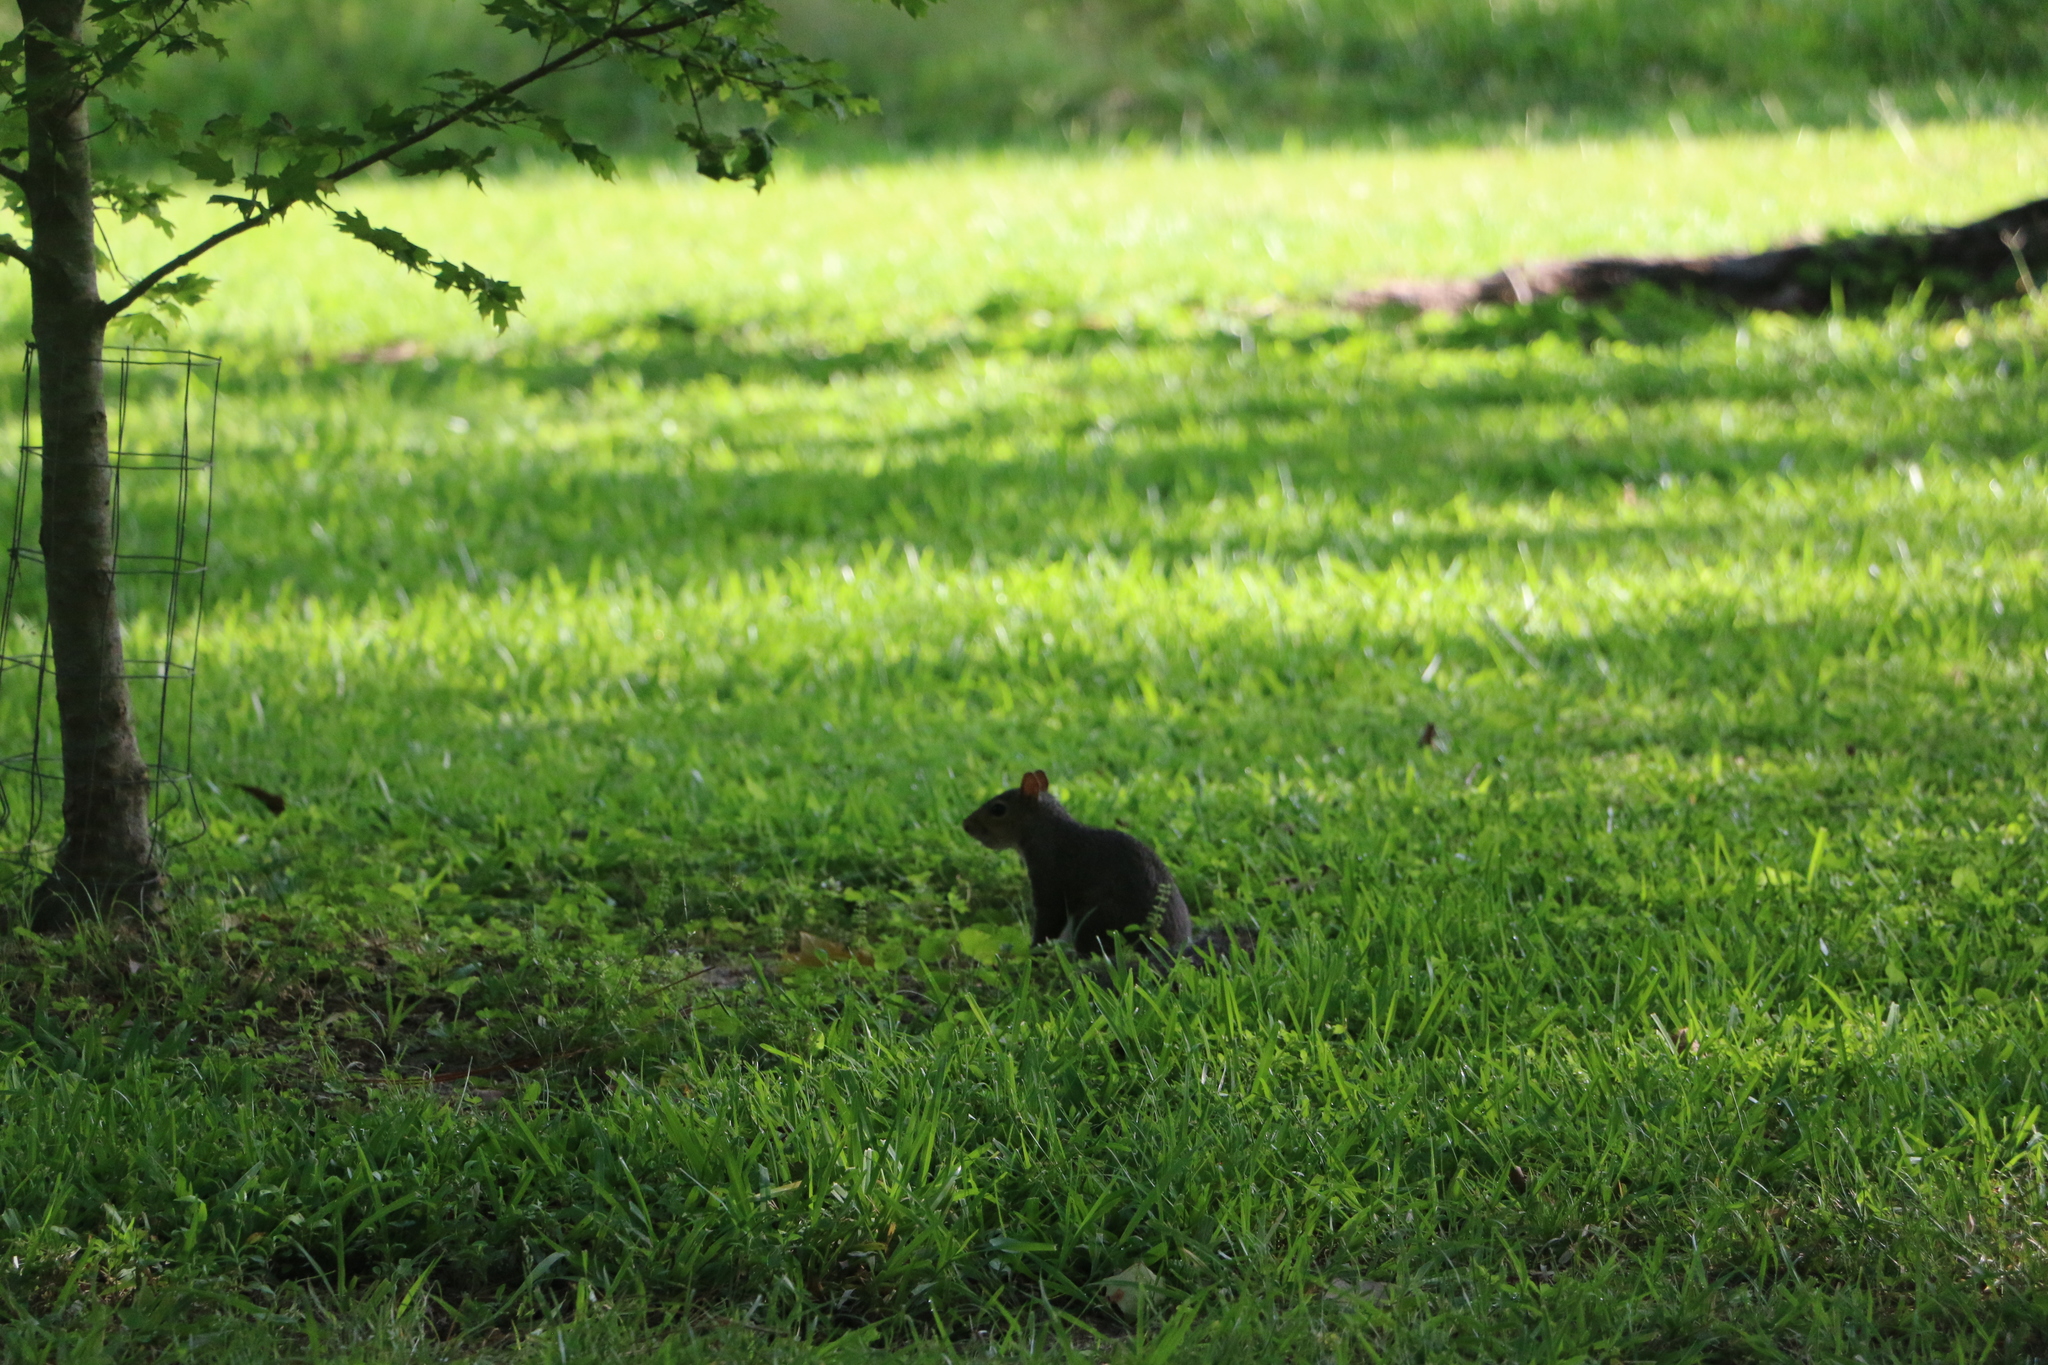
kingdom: Animalia
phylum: Chordata
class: Mammalia
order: Rodentia
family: Sciuridae
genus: Sciurus
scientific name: Sciurus carolinensis
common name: Eastern gray squirrel
